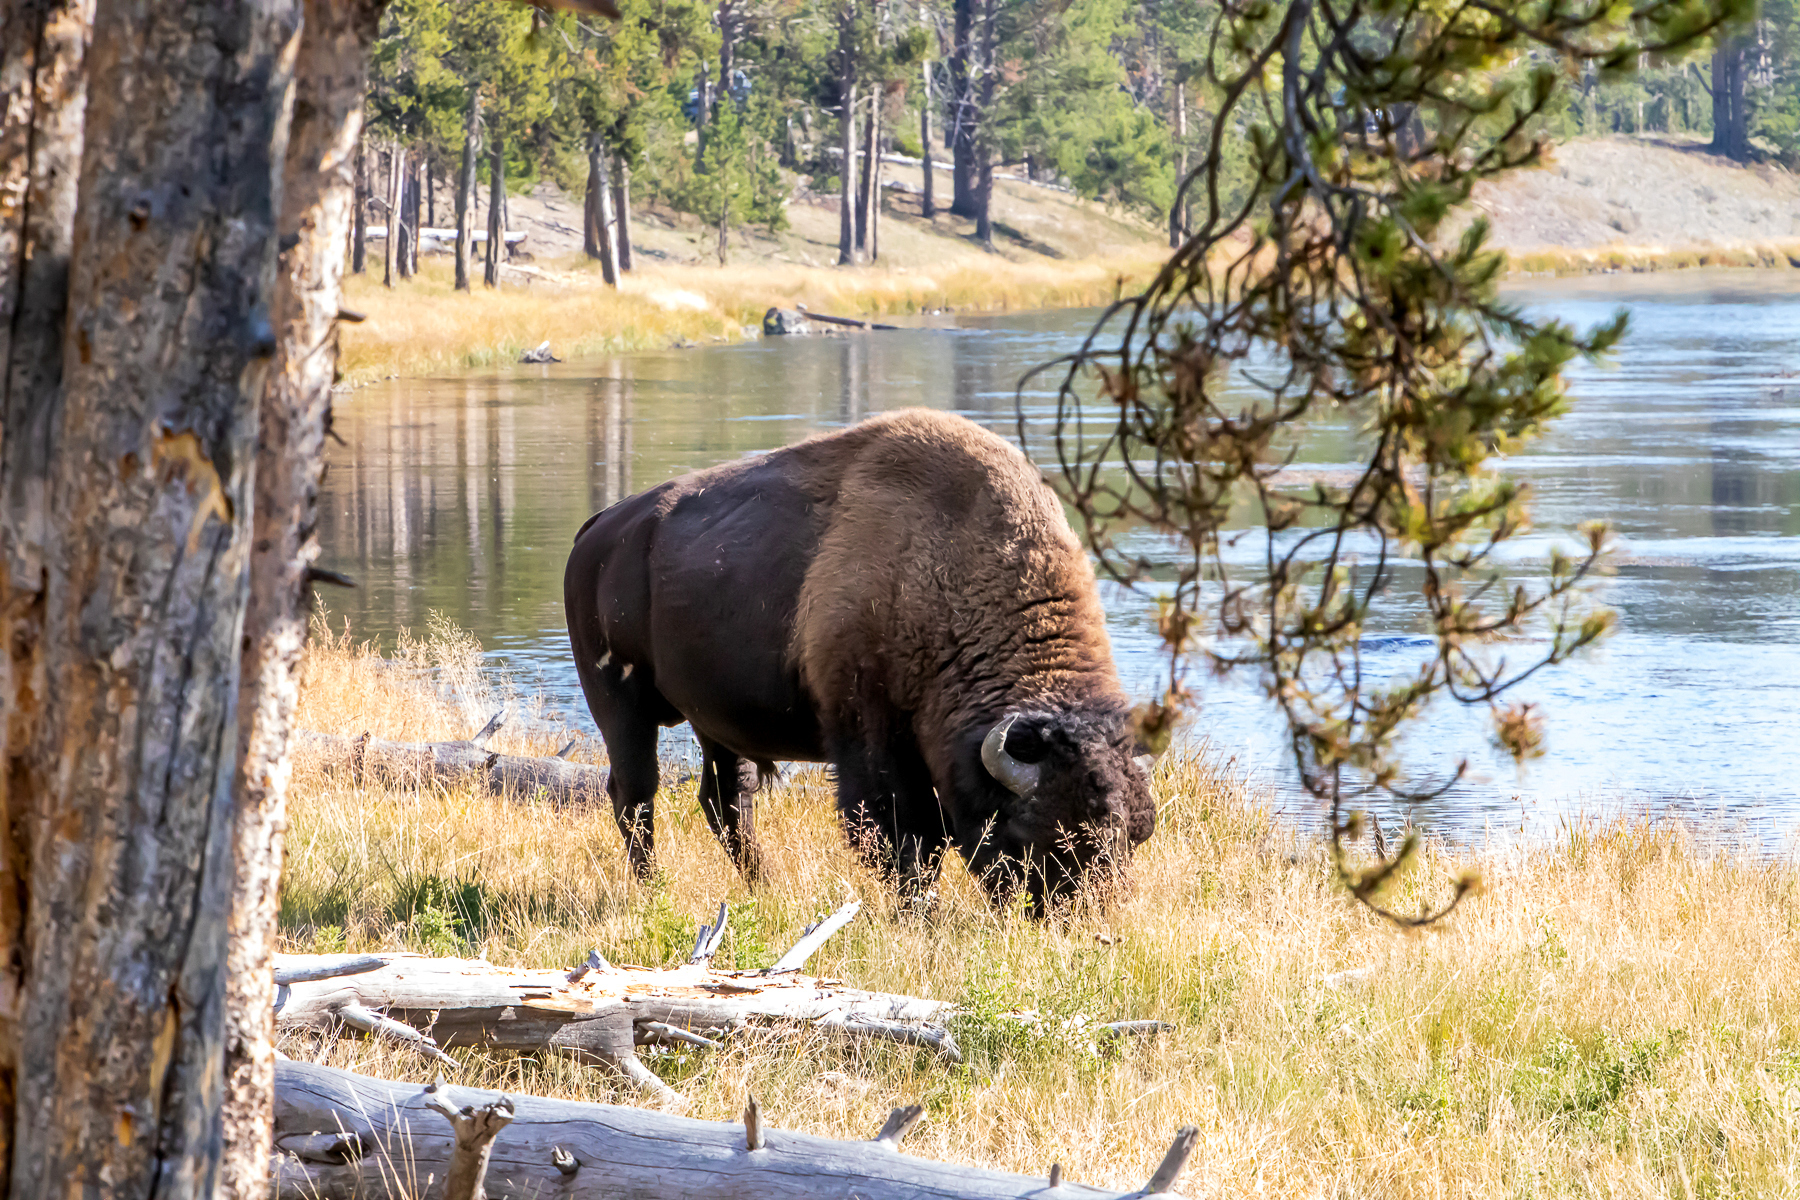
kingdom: Animalia
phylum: Chordata
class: Mammalia
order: Artiodactyla
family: Bovidae
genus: Bison
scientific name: Bison bison
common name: American bison
